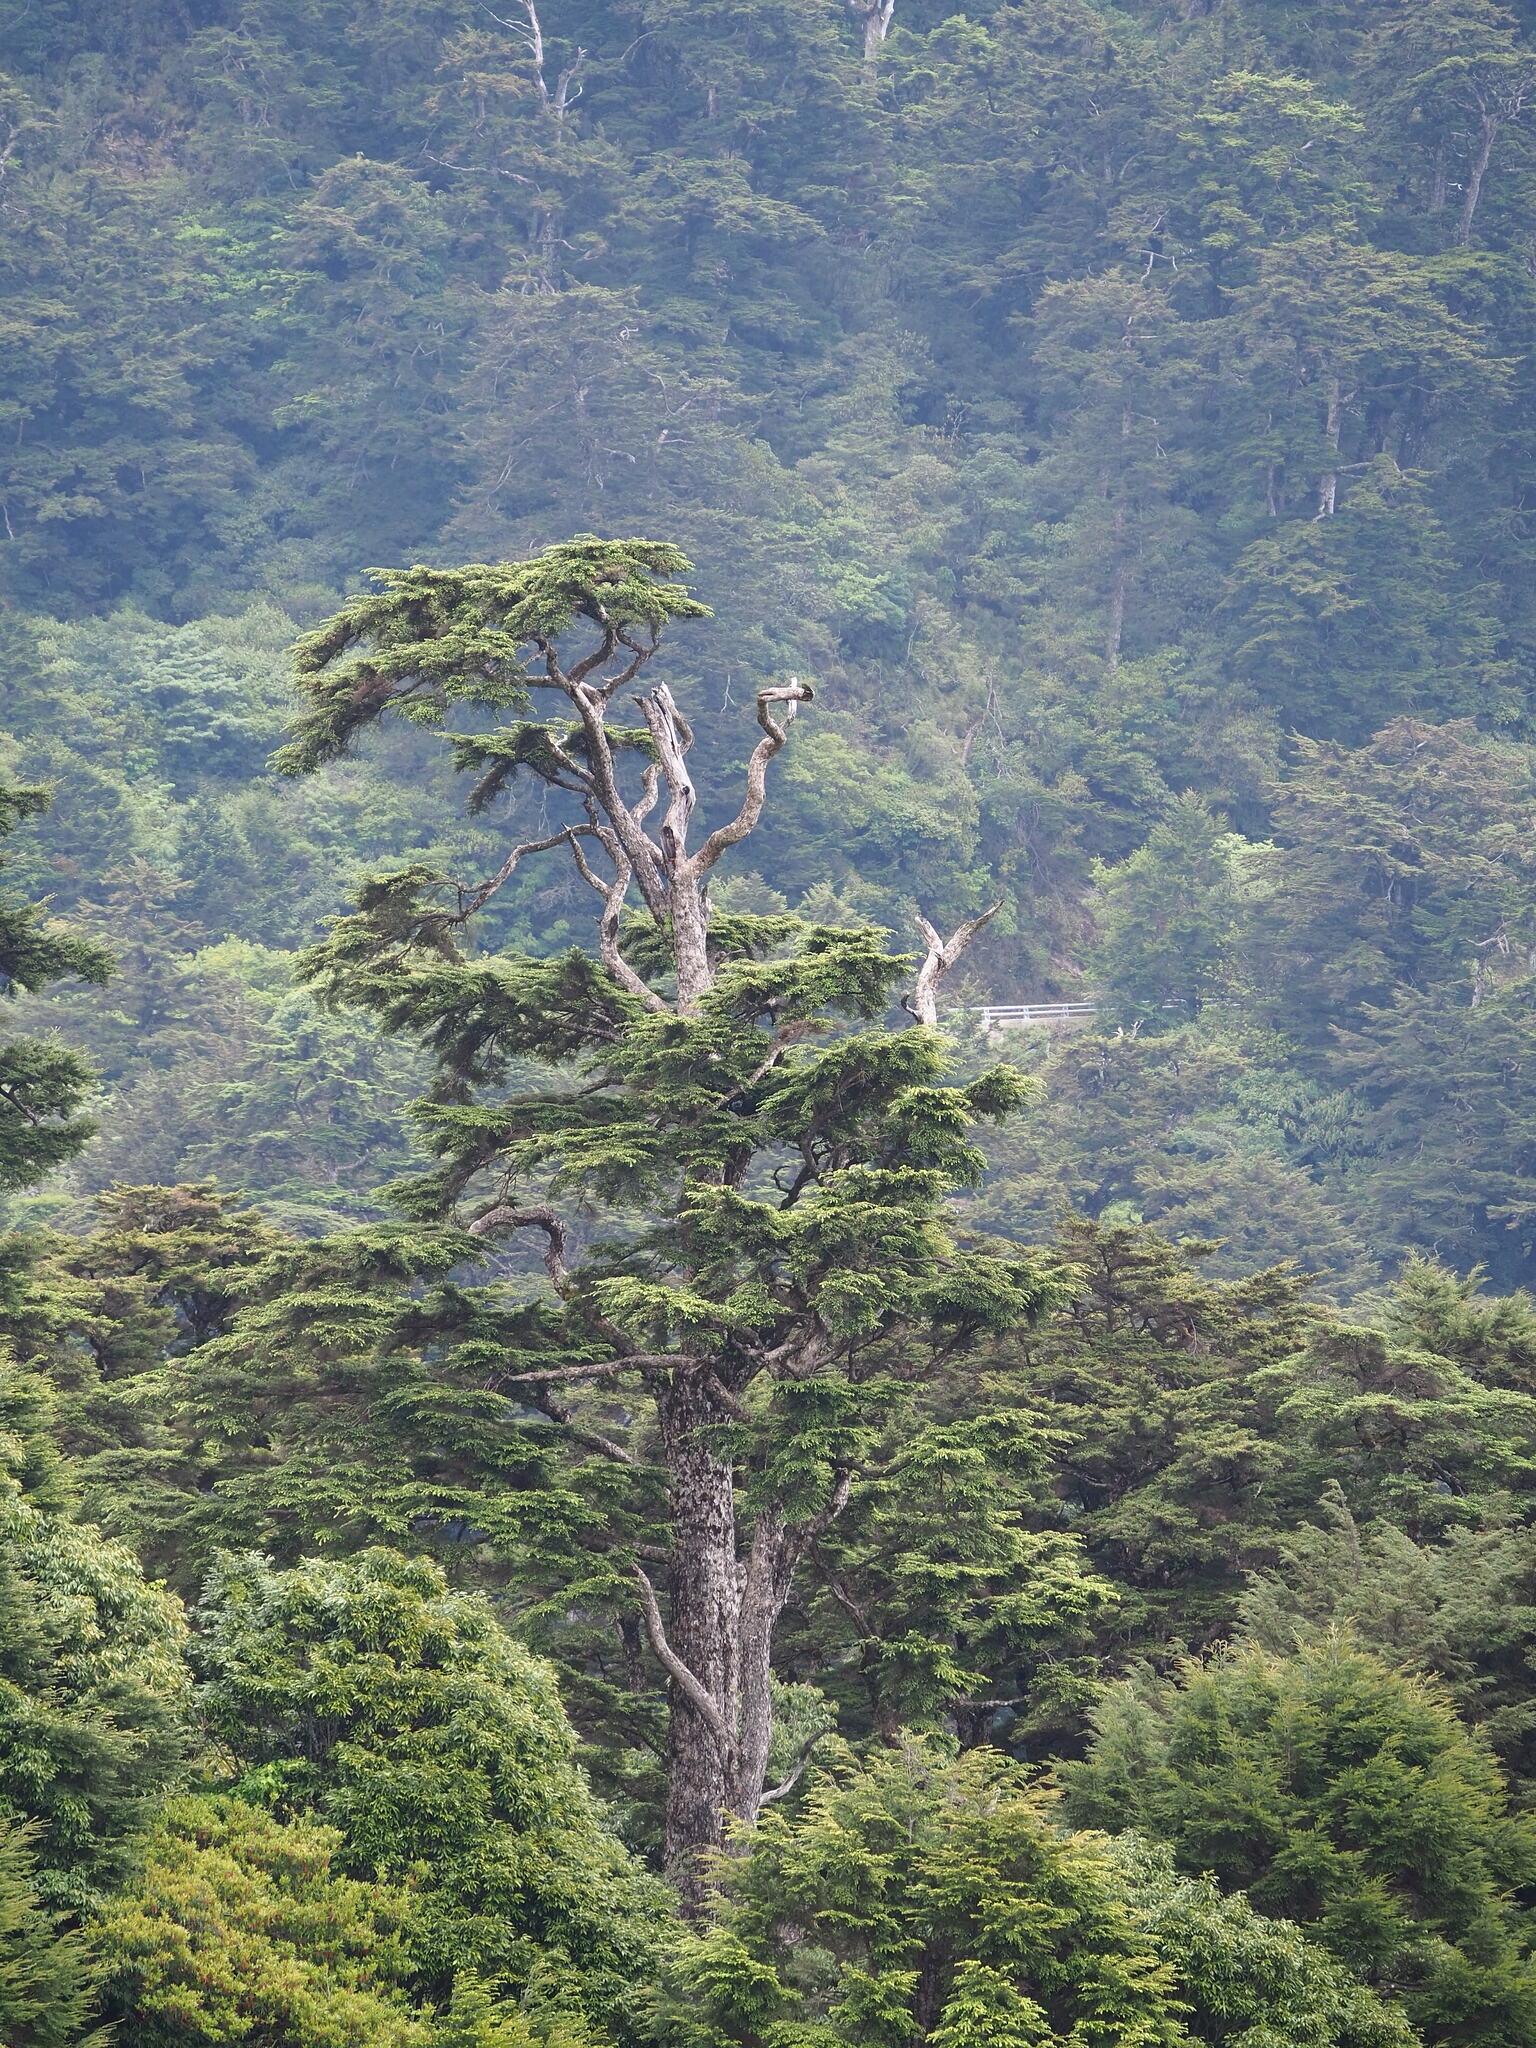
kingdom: Plantae
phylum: Tracheophyta
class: Pinopsida
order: Pinales
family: Pinaceae
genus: Tsuga
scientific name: Tsuga chinensis
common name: Chinese hemlock
